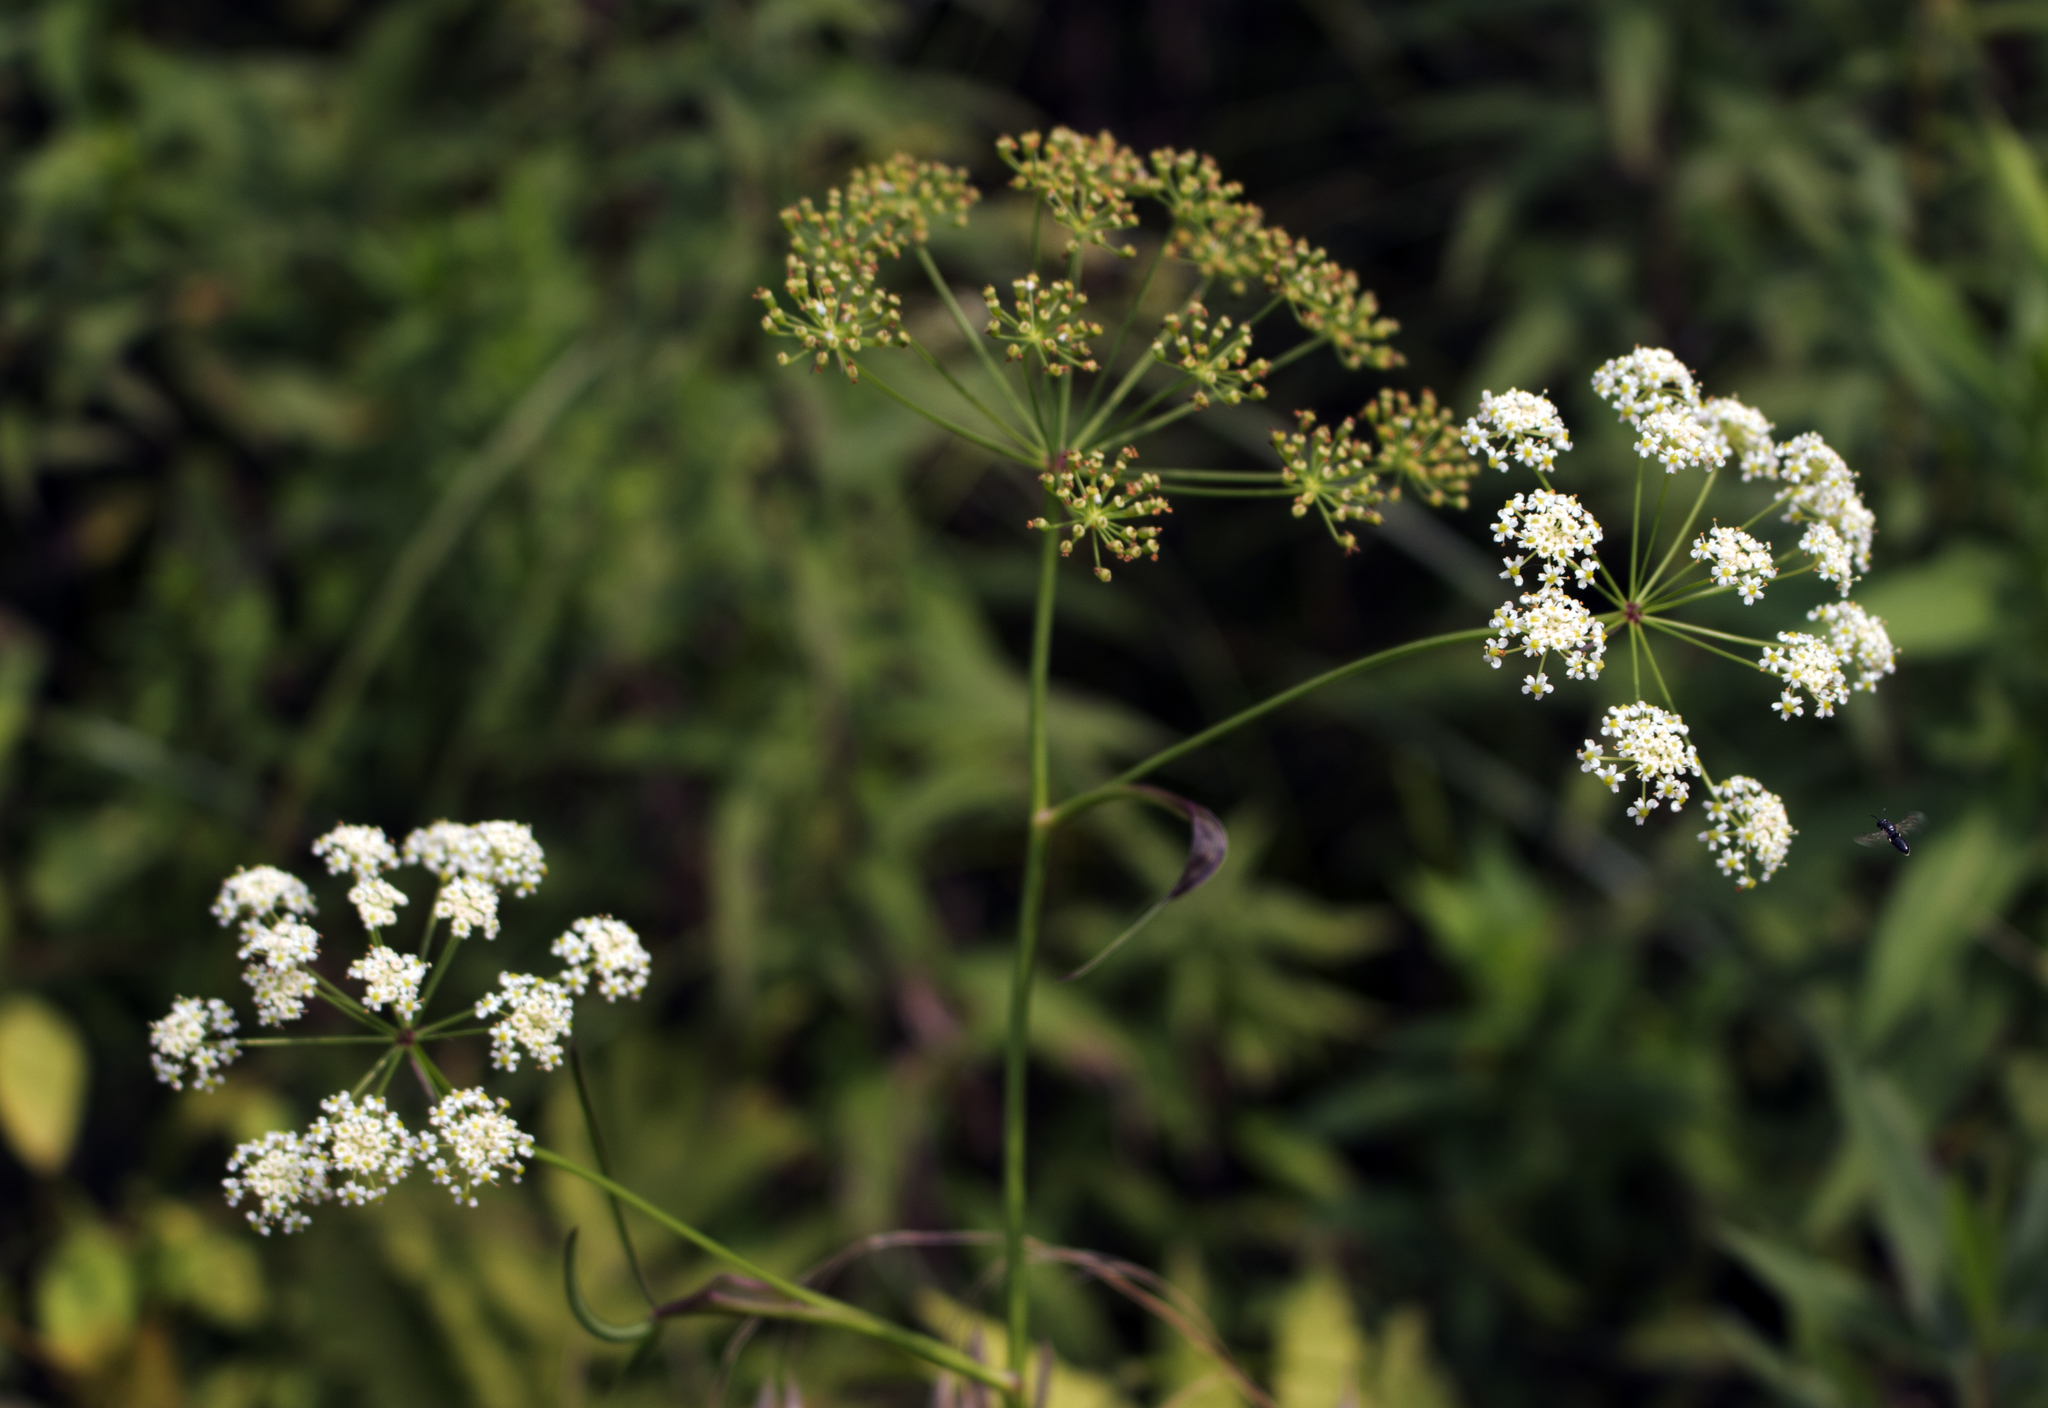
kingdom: Plantae
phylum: Tracheophyta
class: Magnoliopsida
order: Apiales
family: Apiaceae
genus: Sium
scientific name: Sium suave
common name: Hemlock water-parsnip
